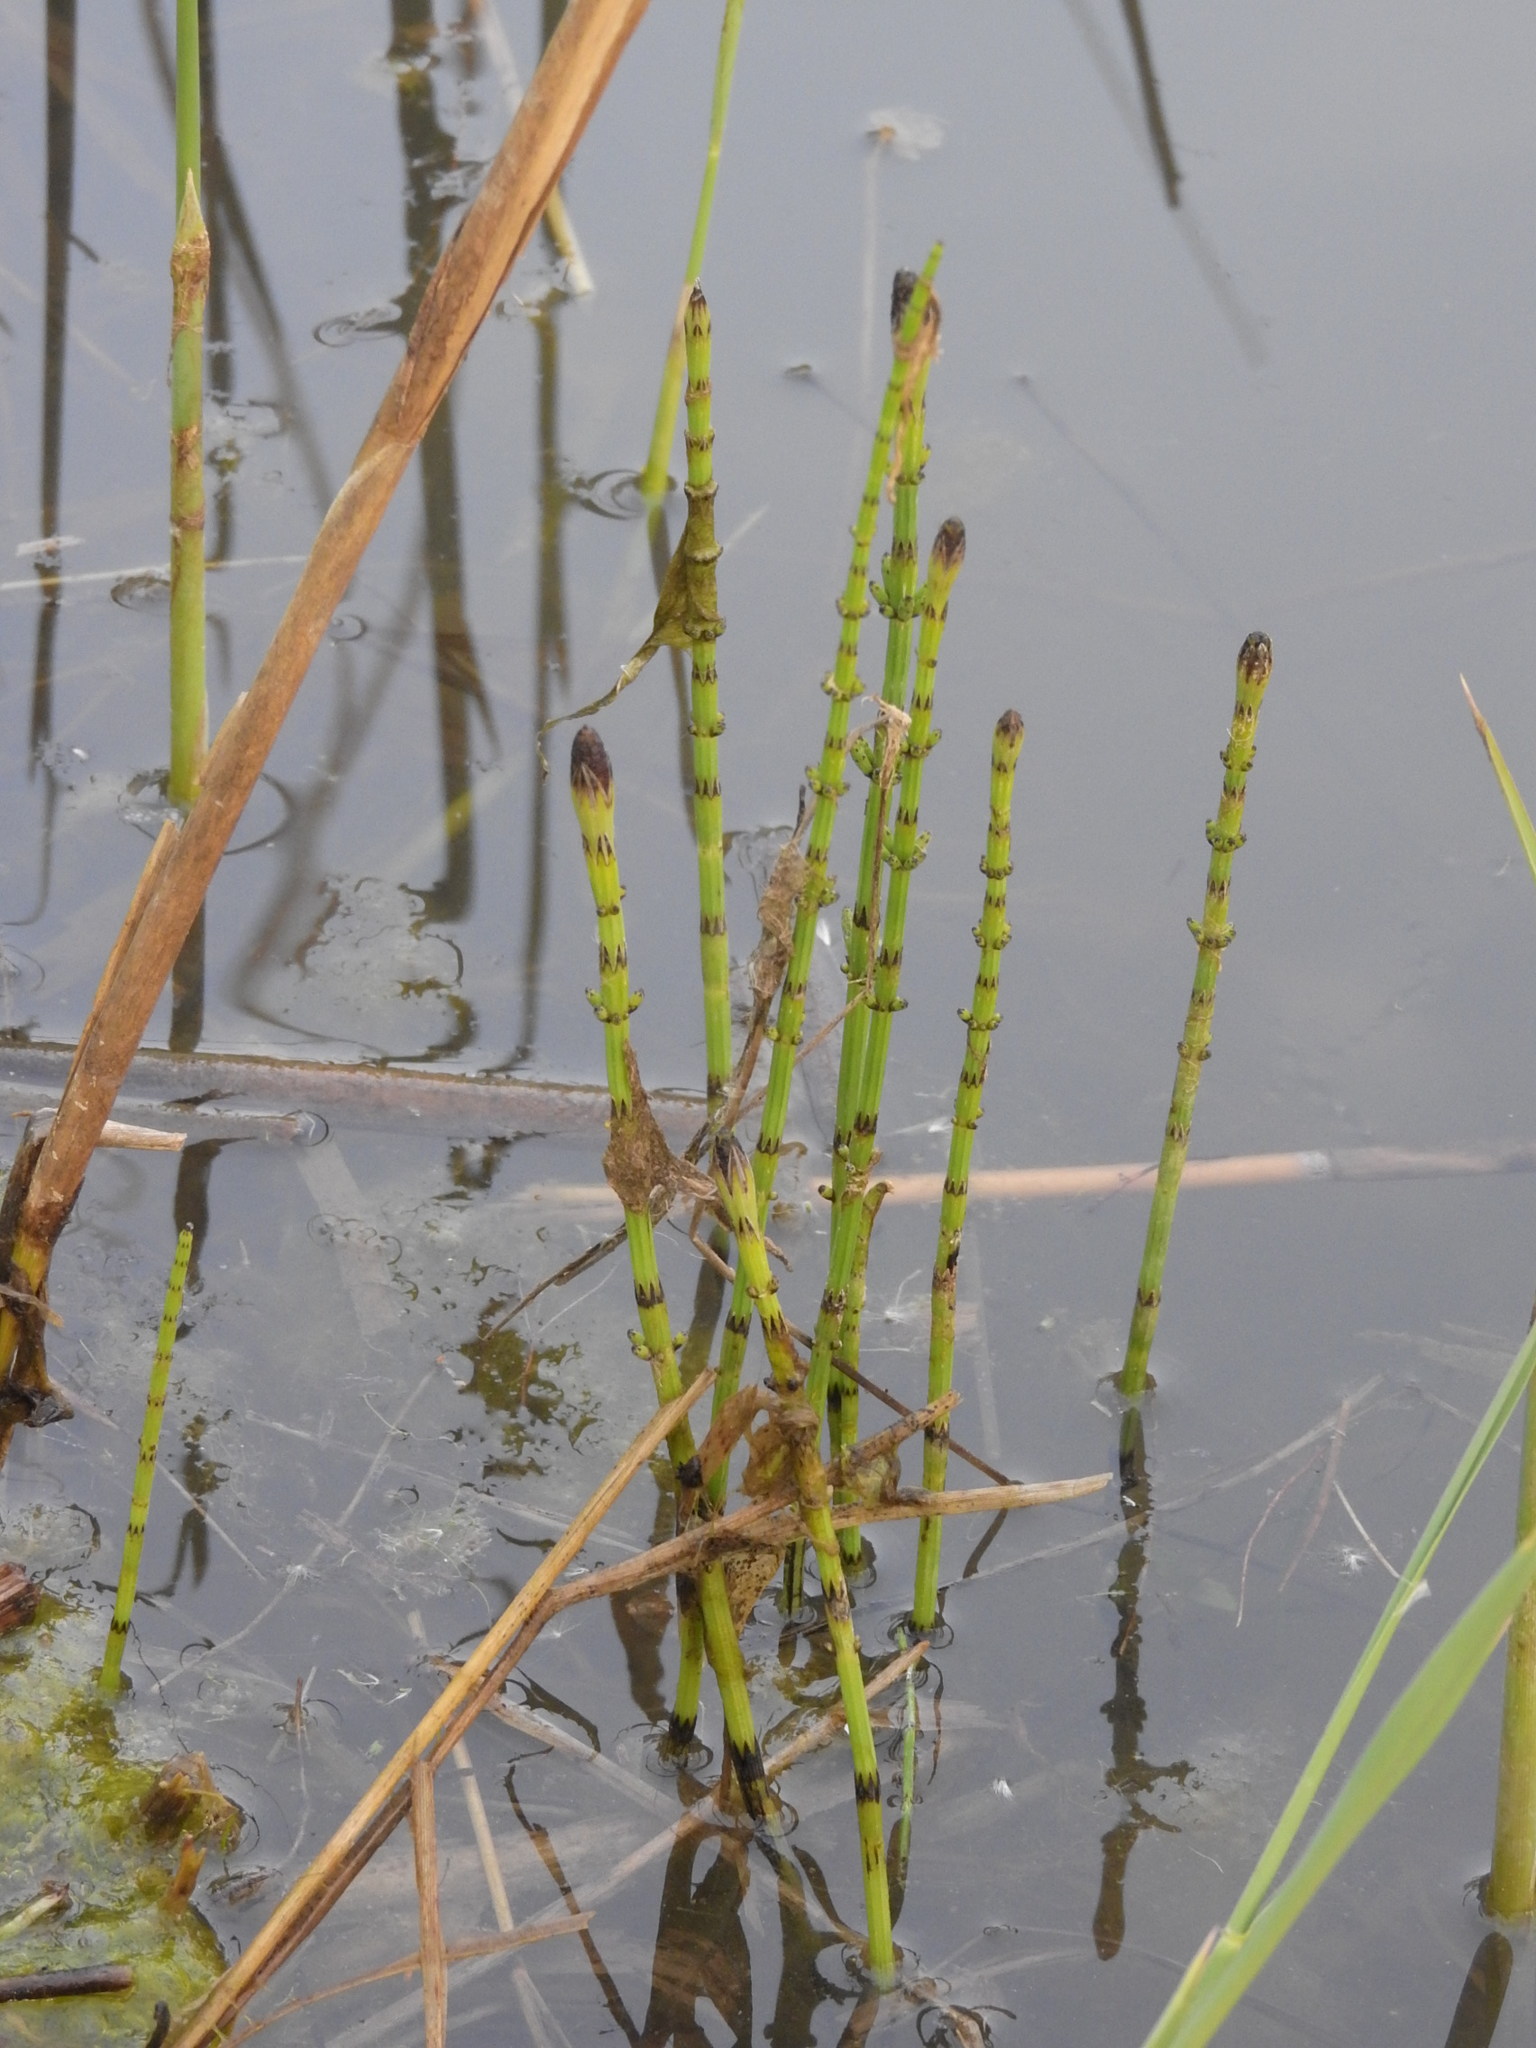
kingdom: Plantae
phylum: Tracheophyta
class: Polypodiopsida
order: Equisetales
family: Equisetaceae
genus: Equisetum
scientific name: Equisetum palustre
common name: Marsh horsetail
